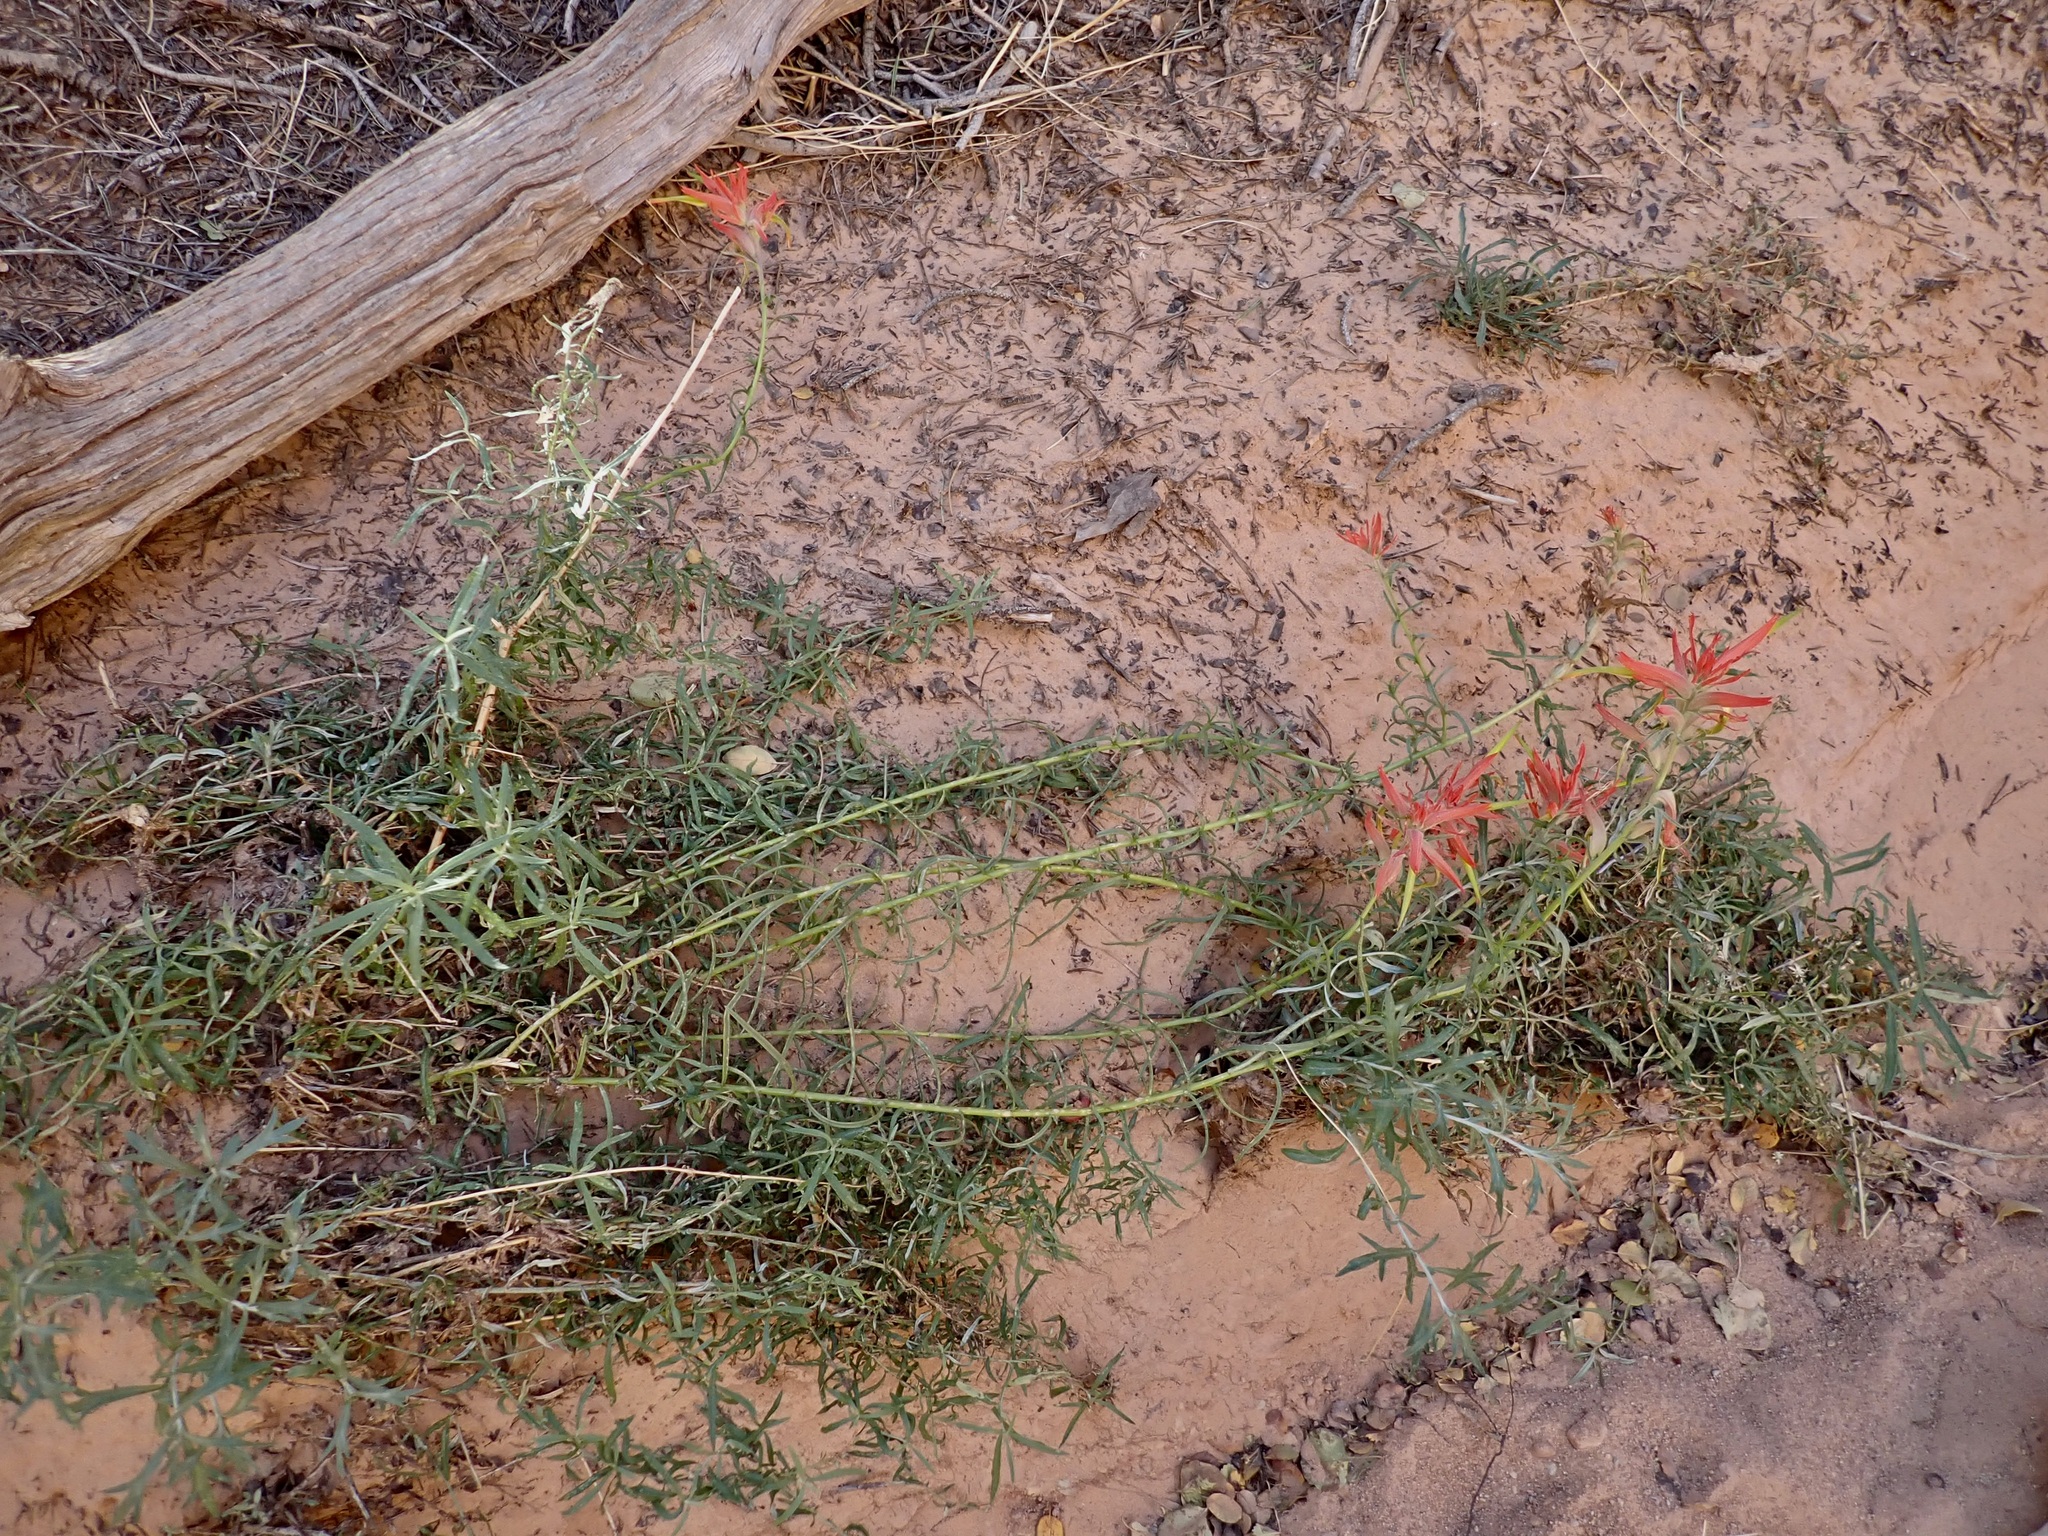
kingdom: Plantae
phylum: Tracheophyta
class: Magnoliopsida
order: Lamiales
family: Orobanchaceae
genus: Castilleja
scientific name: Castilleja linariifolia
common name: Wyoming paintbrush
